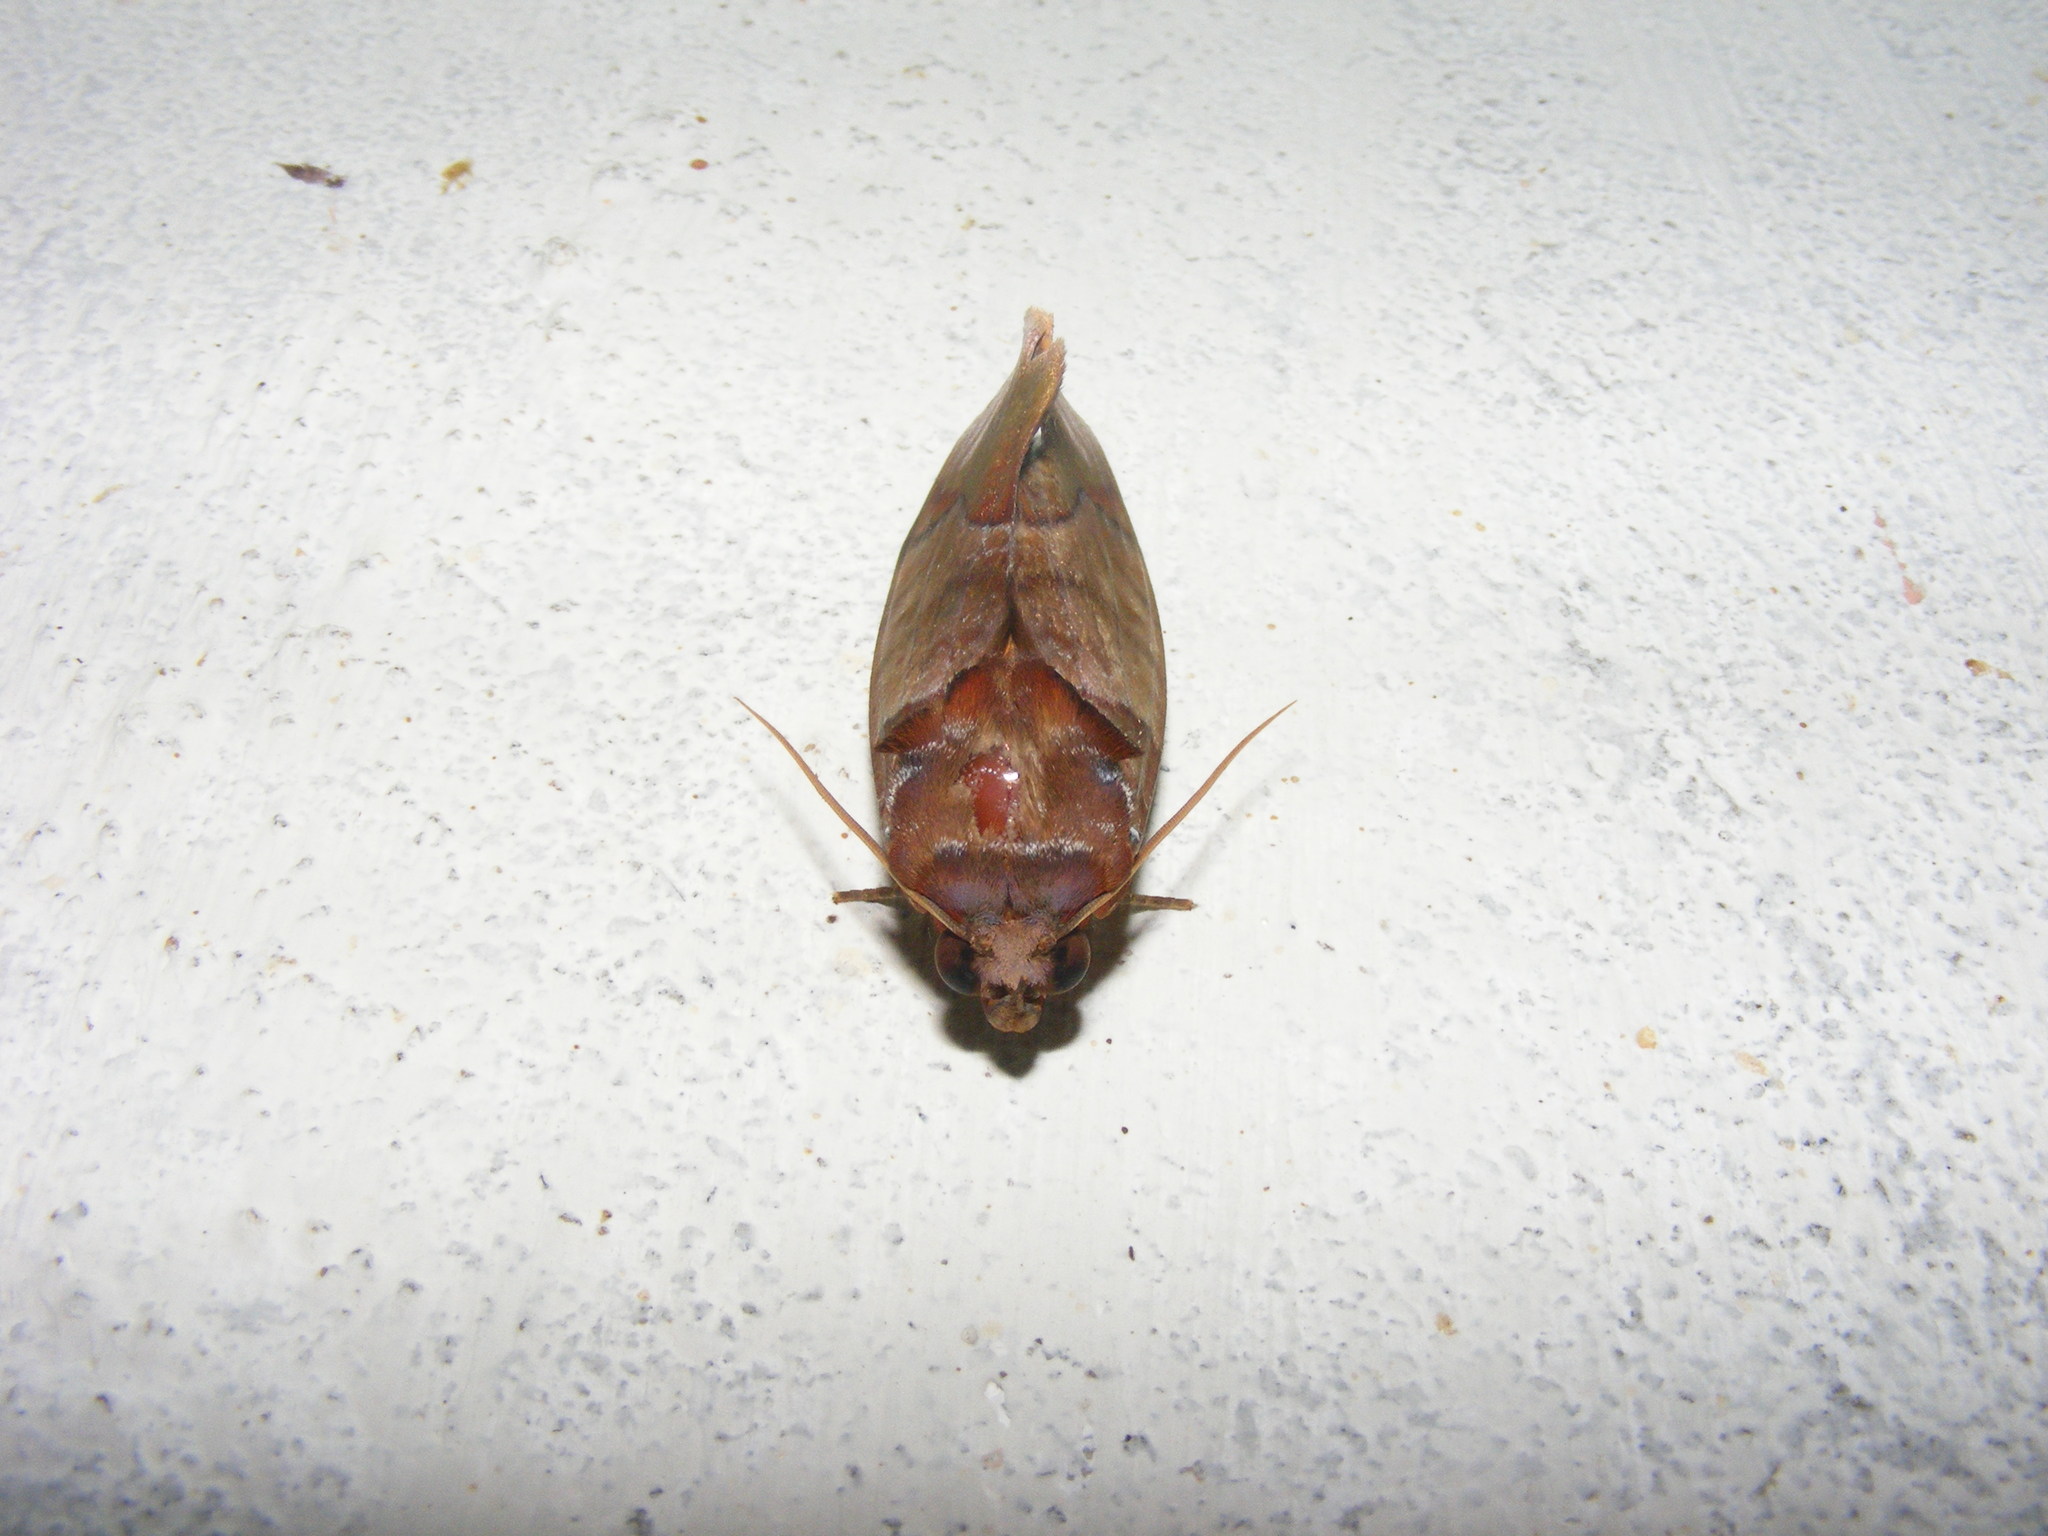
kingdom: Animalia
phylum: Arthropoda
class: Insecta
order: Lepidoptera
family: Erebidae
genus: Eudocima
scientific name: Eudocima homaena
